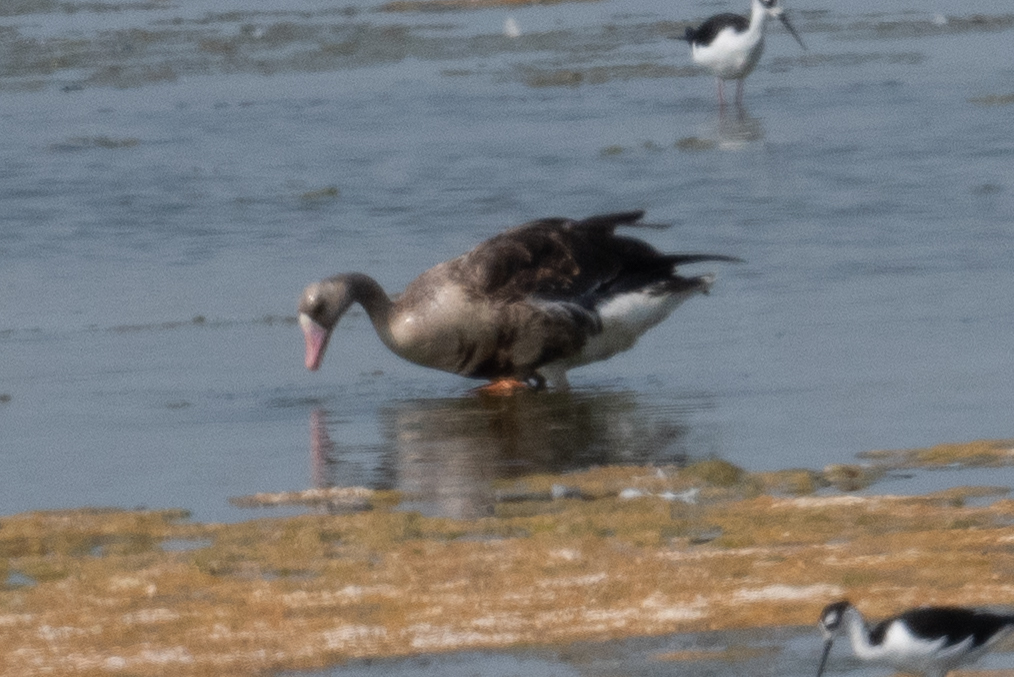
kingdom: Animalia
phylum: Chordata
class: Aves
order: Anseriformes
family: Anatidae
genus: Anser
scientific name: Anser albifrons
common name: Greater white-fronted goose
